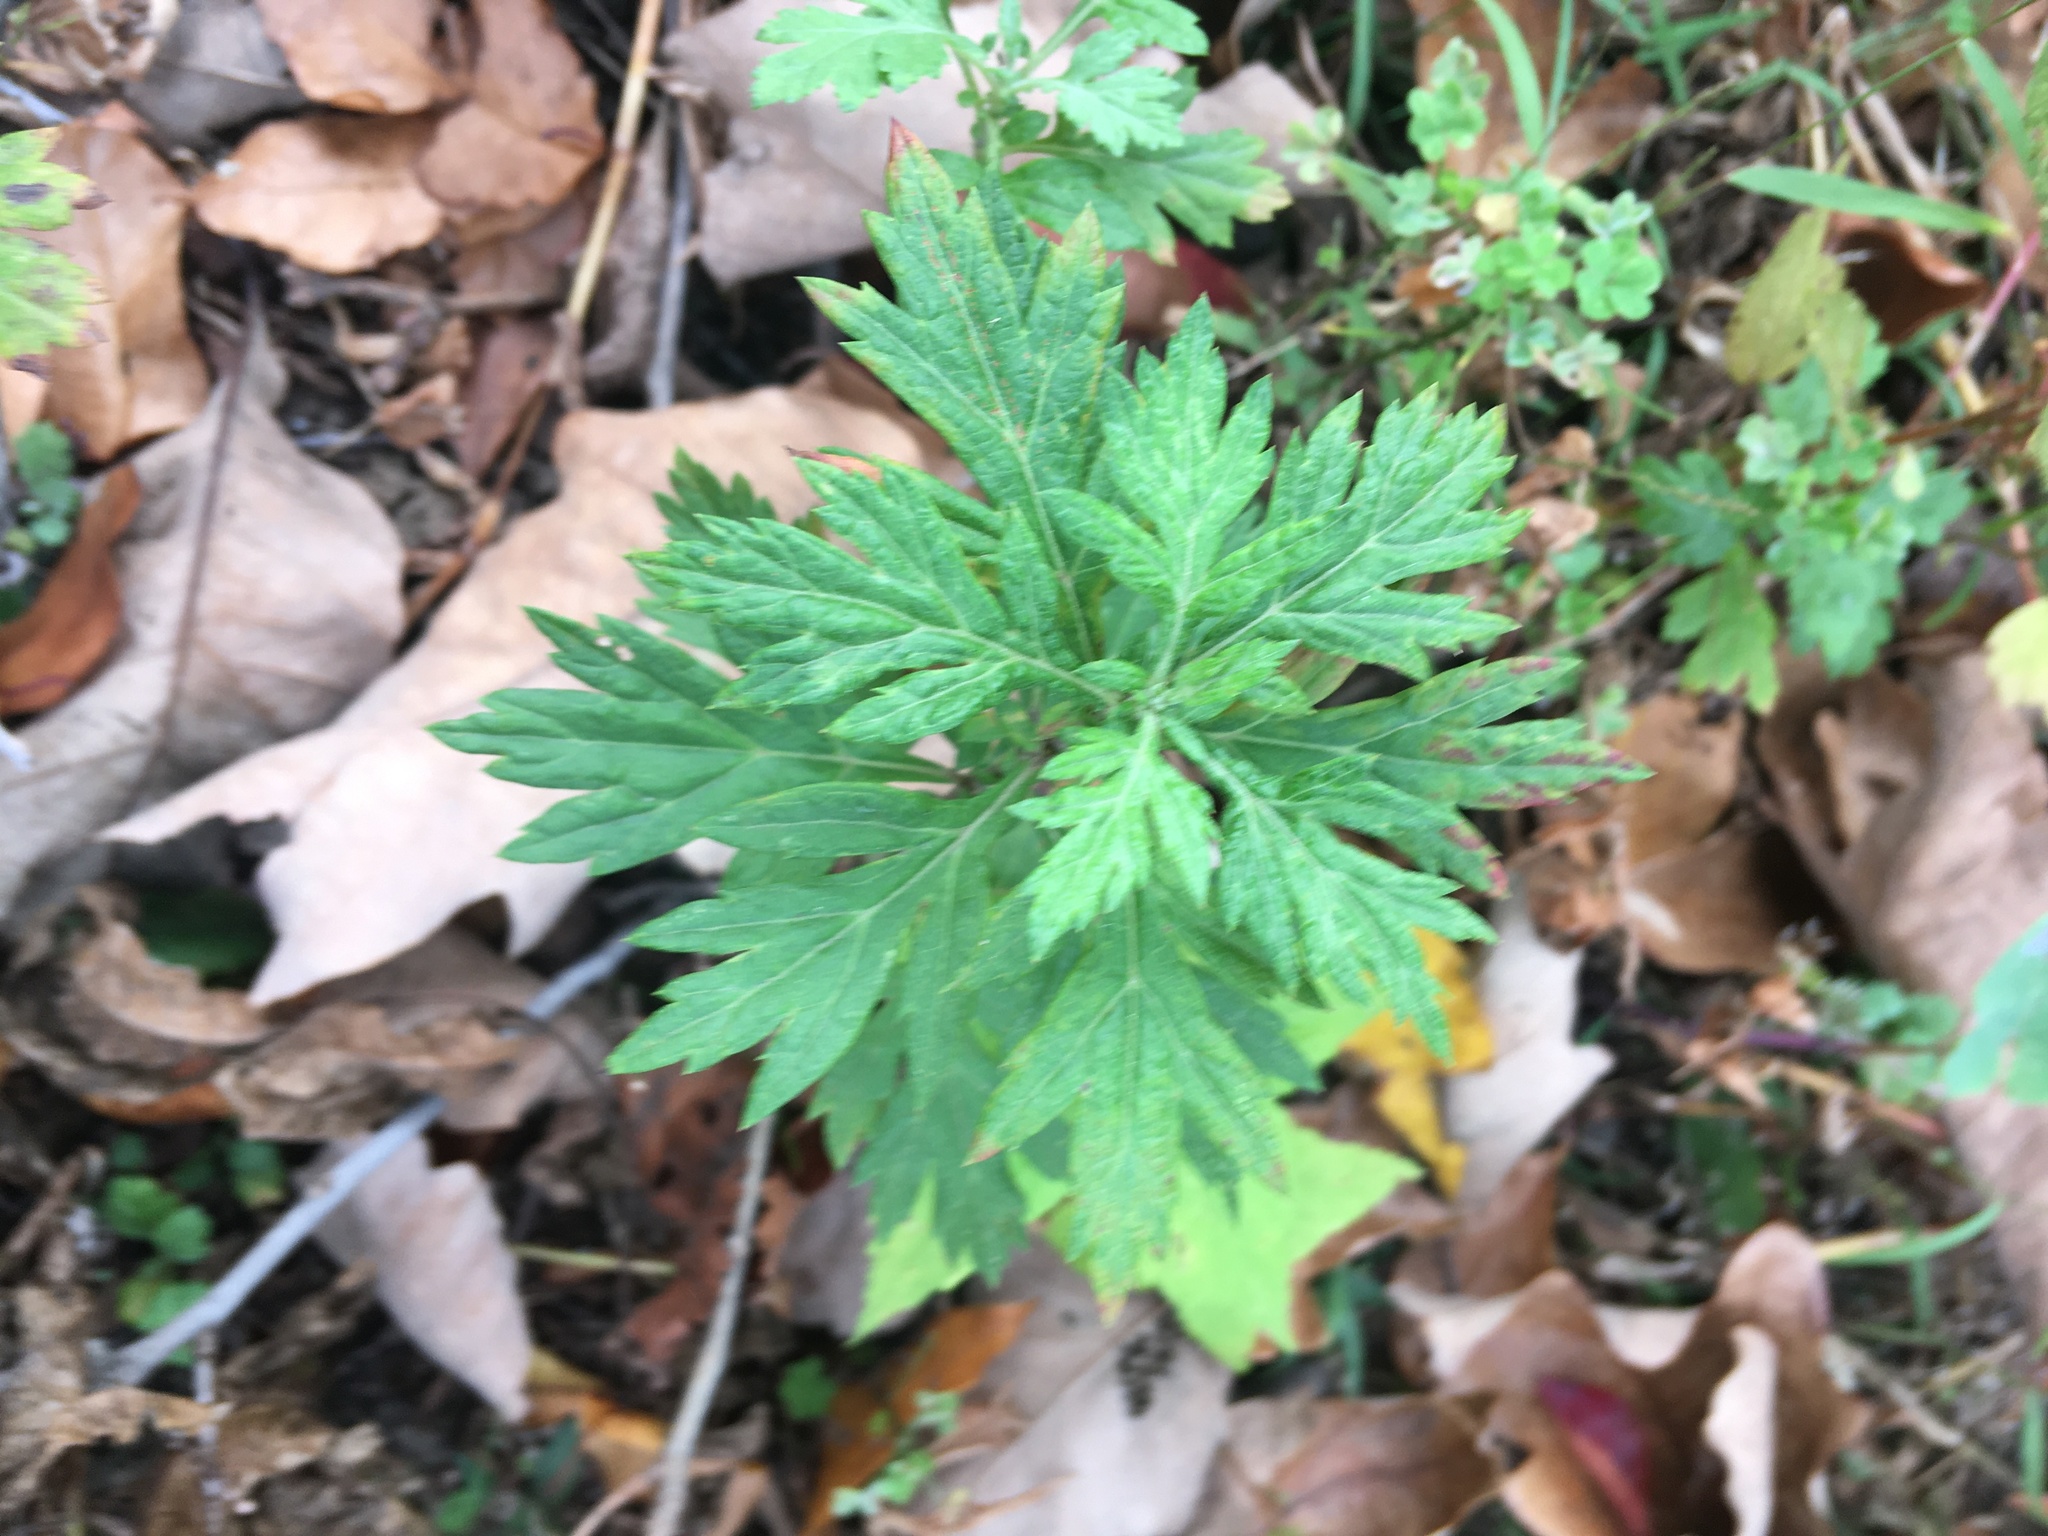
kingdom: Plantae
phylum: Tracheophyta
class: Magnoliopsida
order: Asterales
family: Asteraceae
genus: Artemisia
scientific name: Artemisia vulgaris
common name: Mugwort
